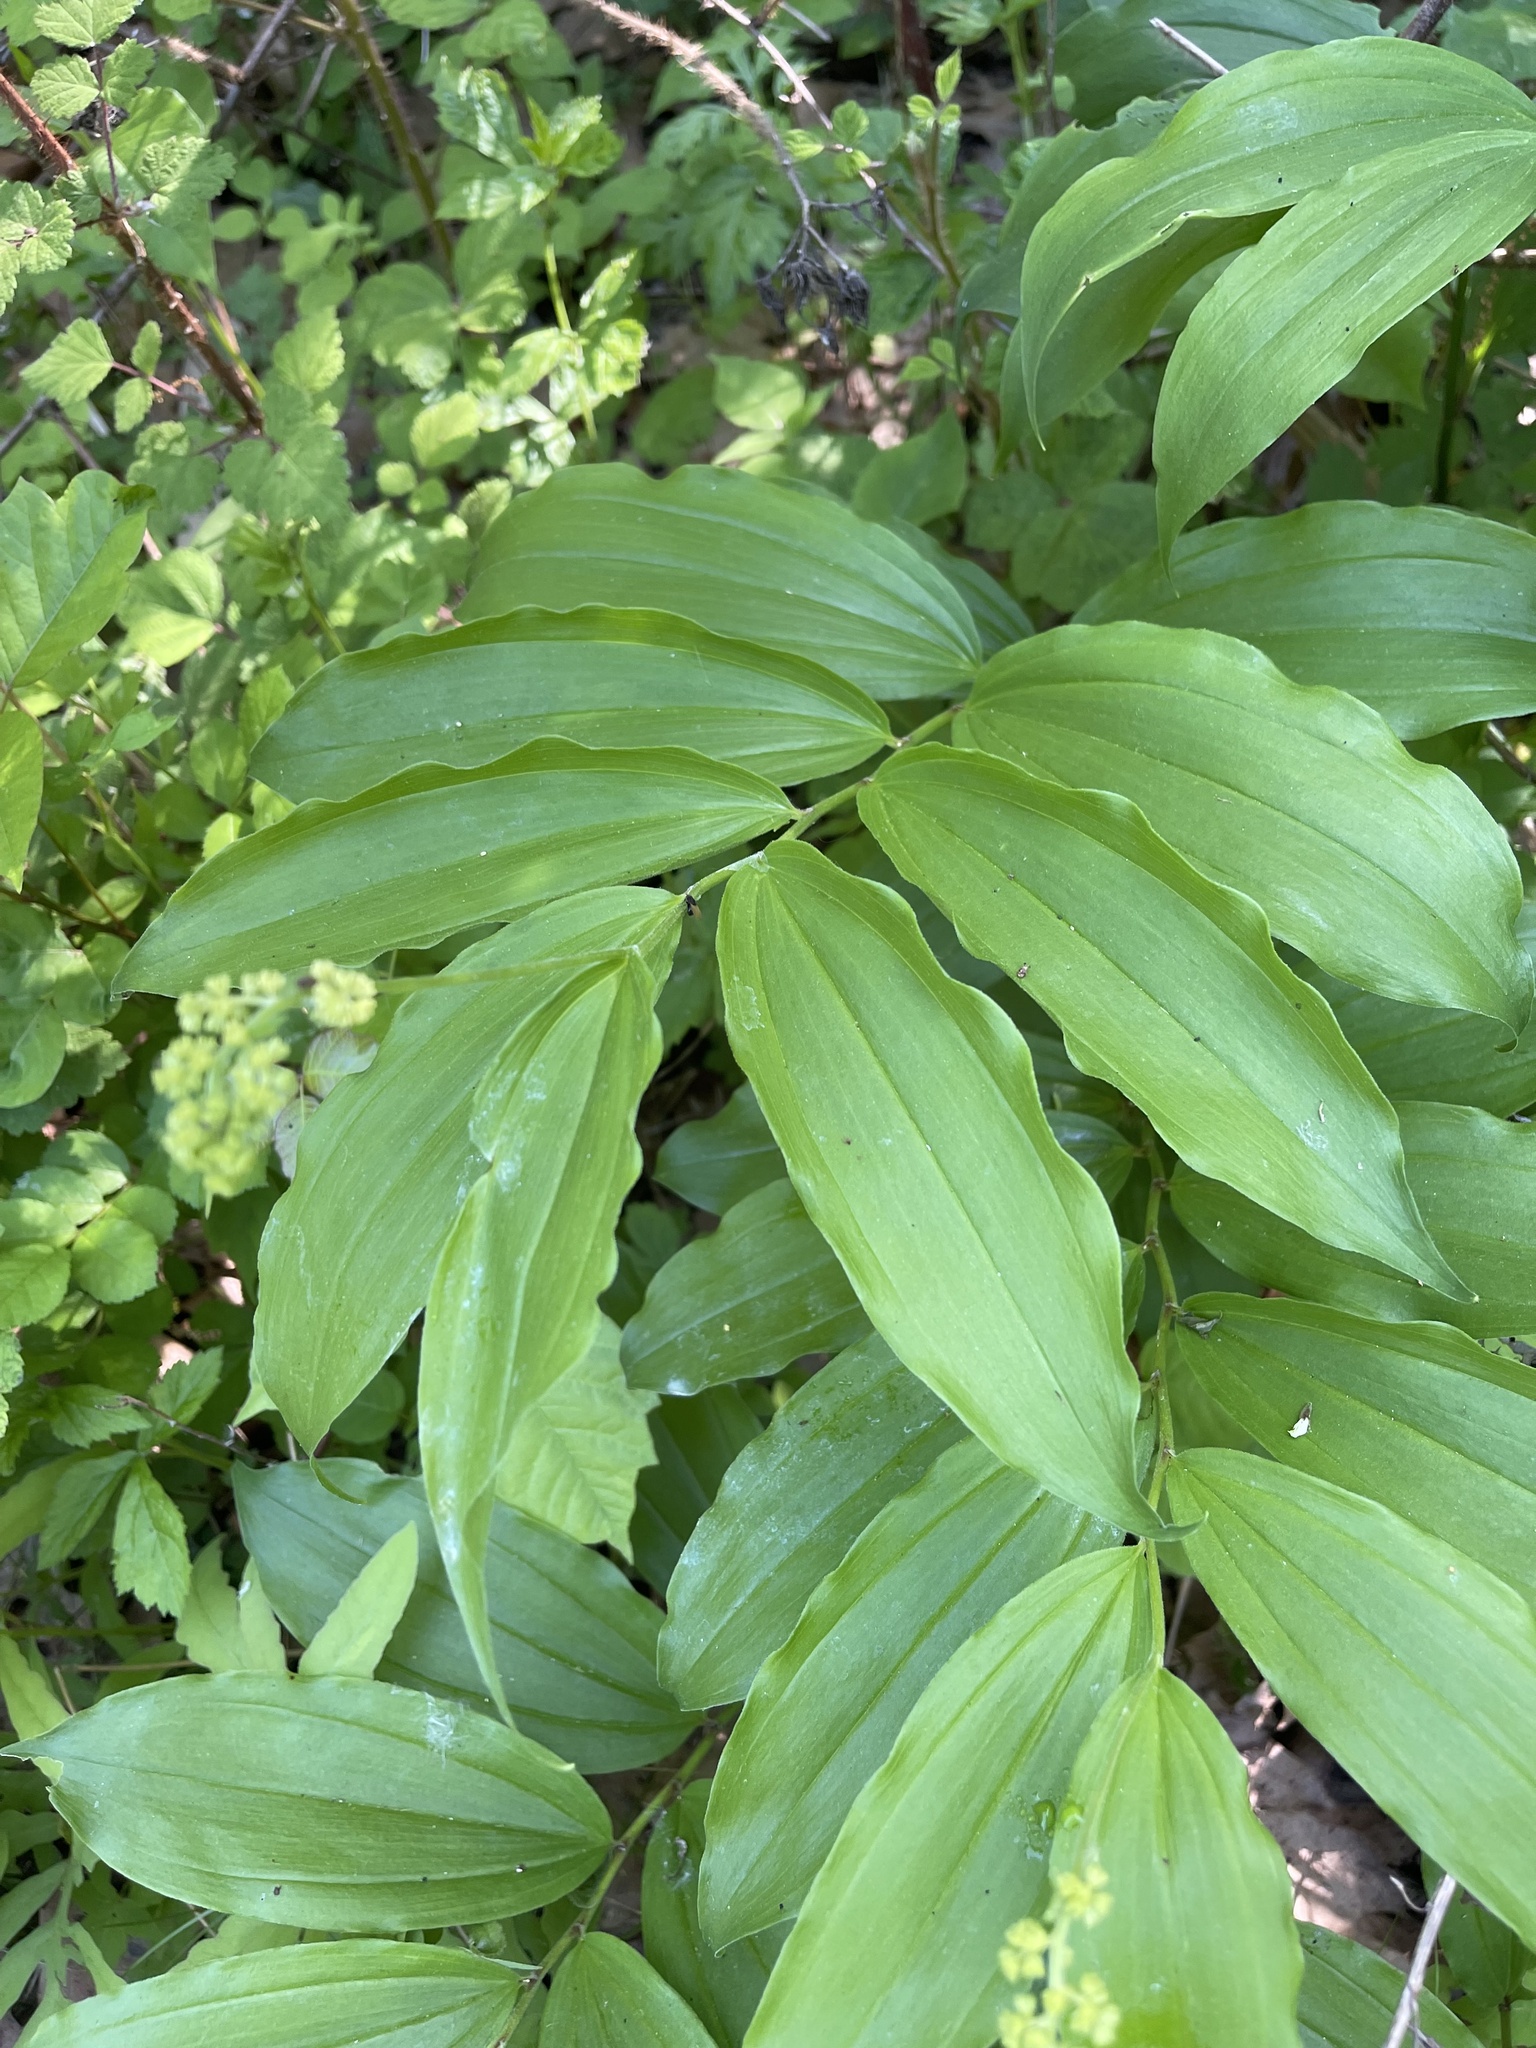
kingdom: Plantae
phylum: Tracheophyta
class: Liliopsida
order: Asparagales
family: Asparagaceae
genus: Maianthemum
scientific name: Maianthemum racemosum
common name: False spikenard
